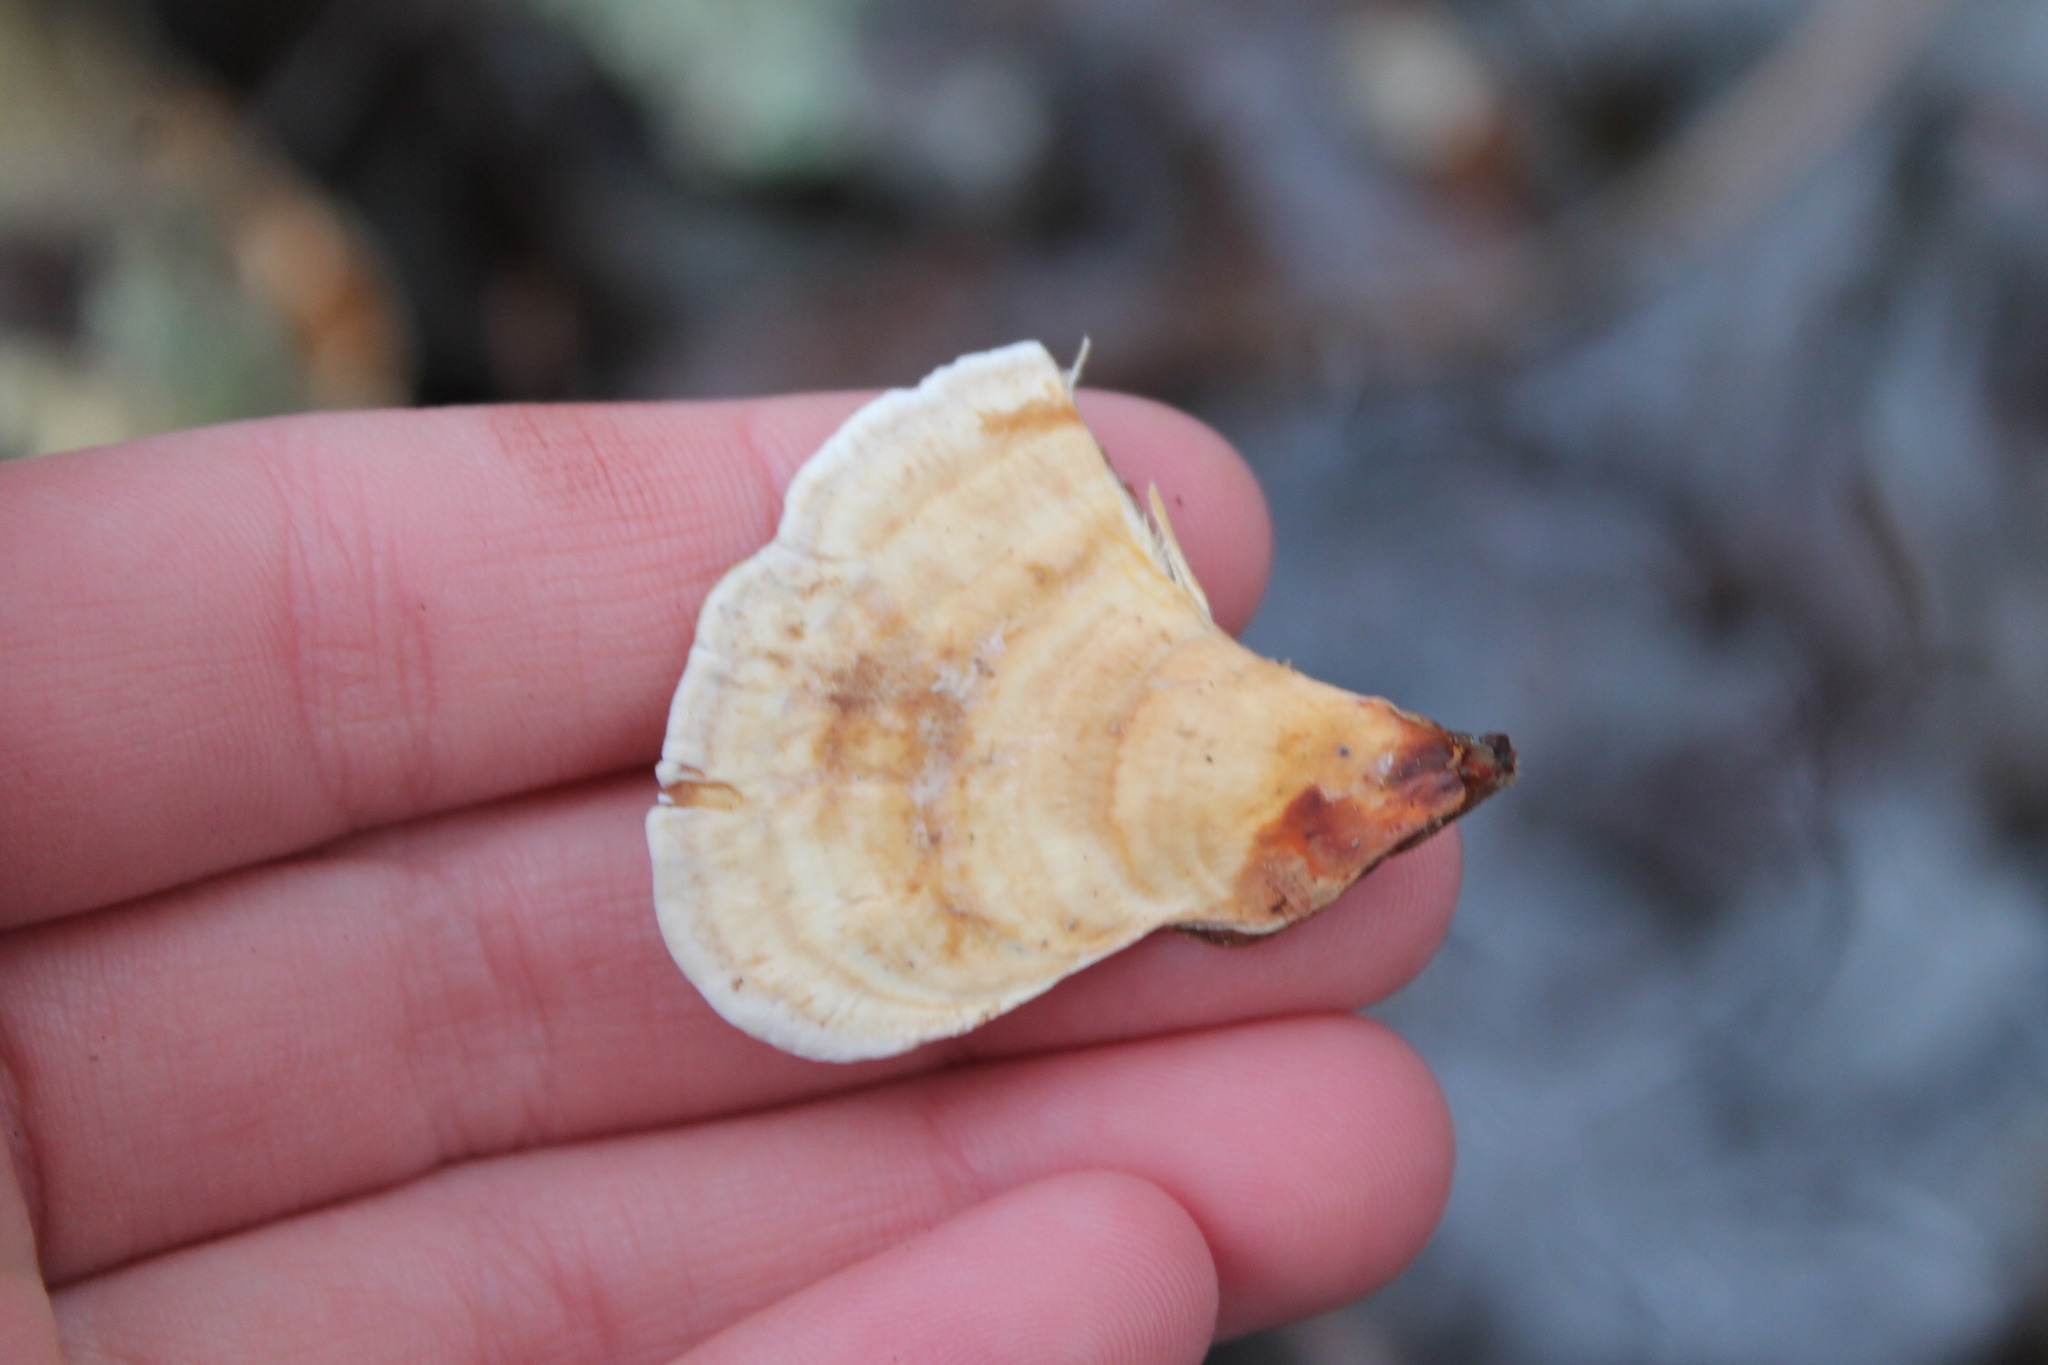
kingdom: Fungi
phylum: Basidiomycota
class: Agaricomycetes
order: Russulales
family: Stereaceae
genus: Stereum
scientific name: Stereum lobatum
